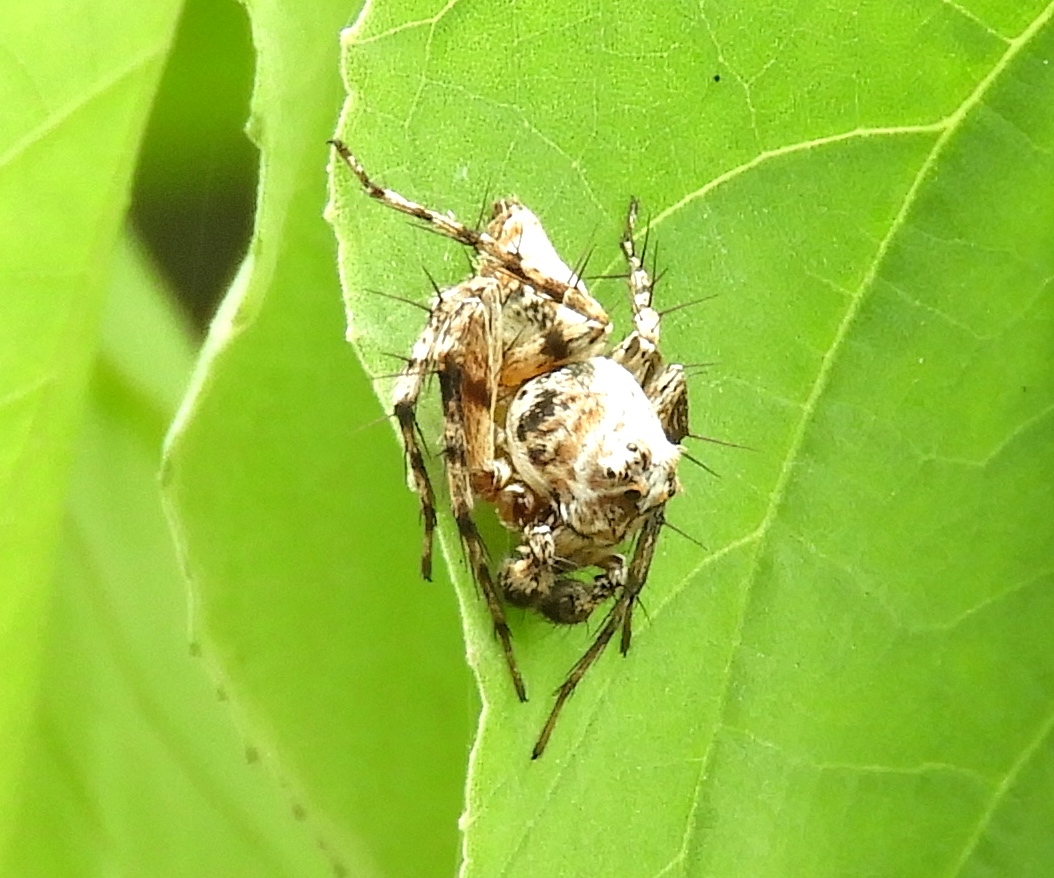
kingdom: Animalia
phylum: Arthropoda
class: Arachnida
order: Araneae
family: Oxyopidae
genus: Hamataliwa
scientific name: Hamataliwa
